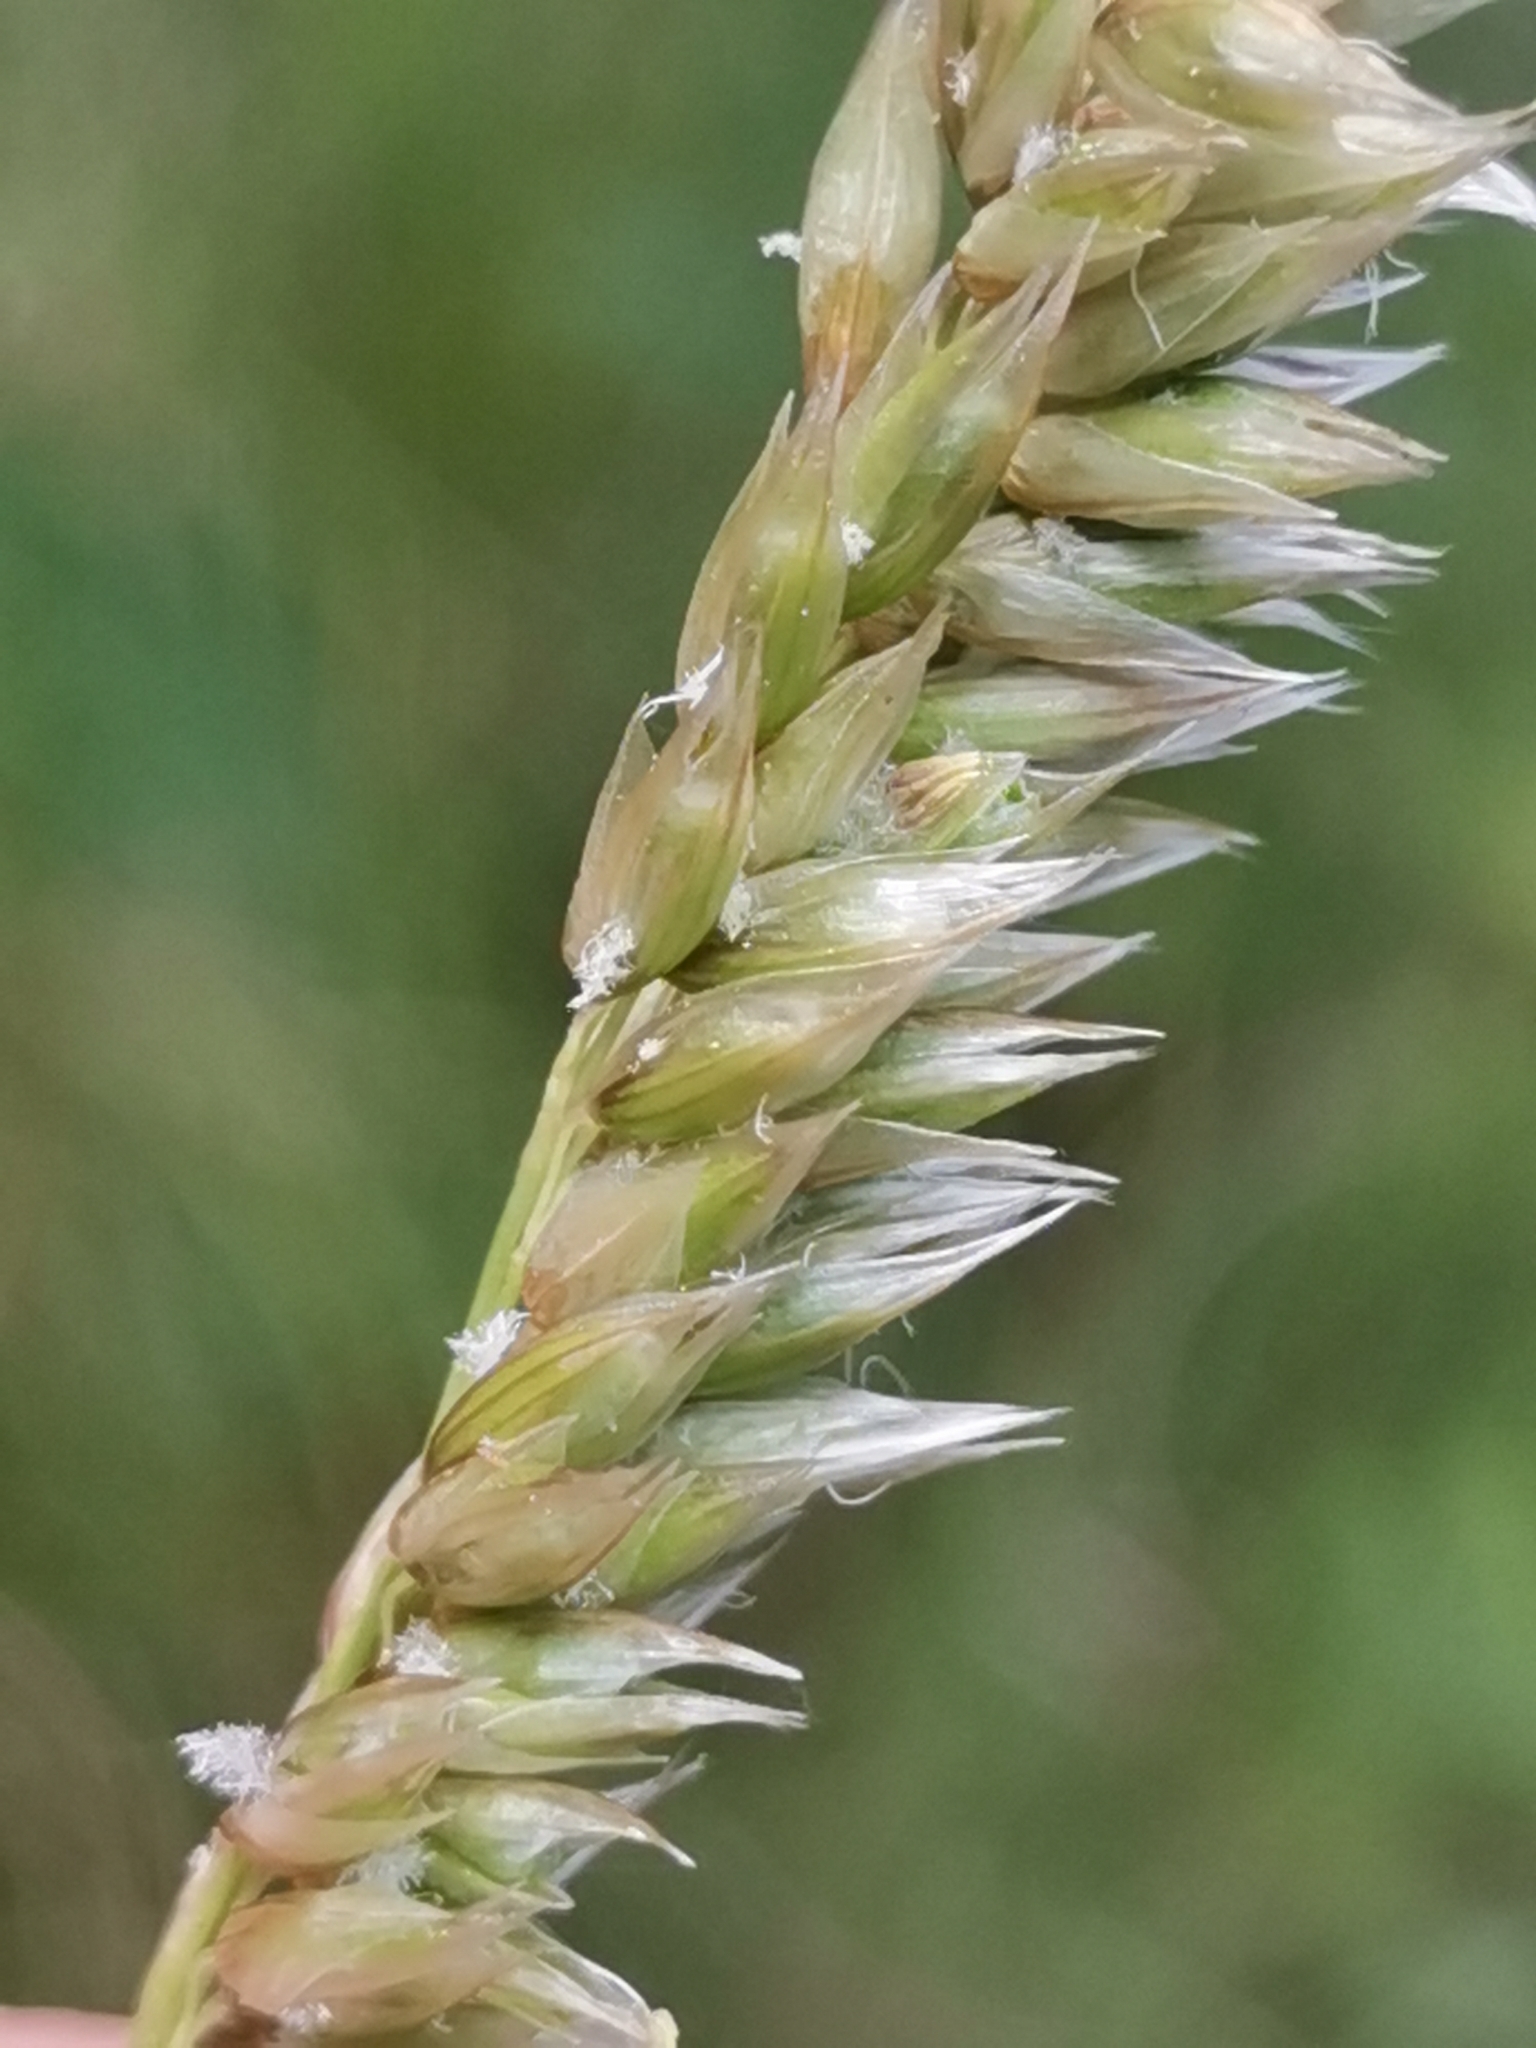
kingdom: Plantae
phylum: Tracheophyta
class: Liliopsida
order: Poales
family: Poaceae
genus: Melica
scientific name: Melica ciliata
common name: Hairy melicgrass
